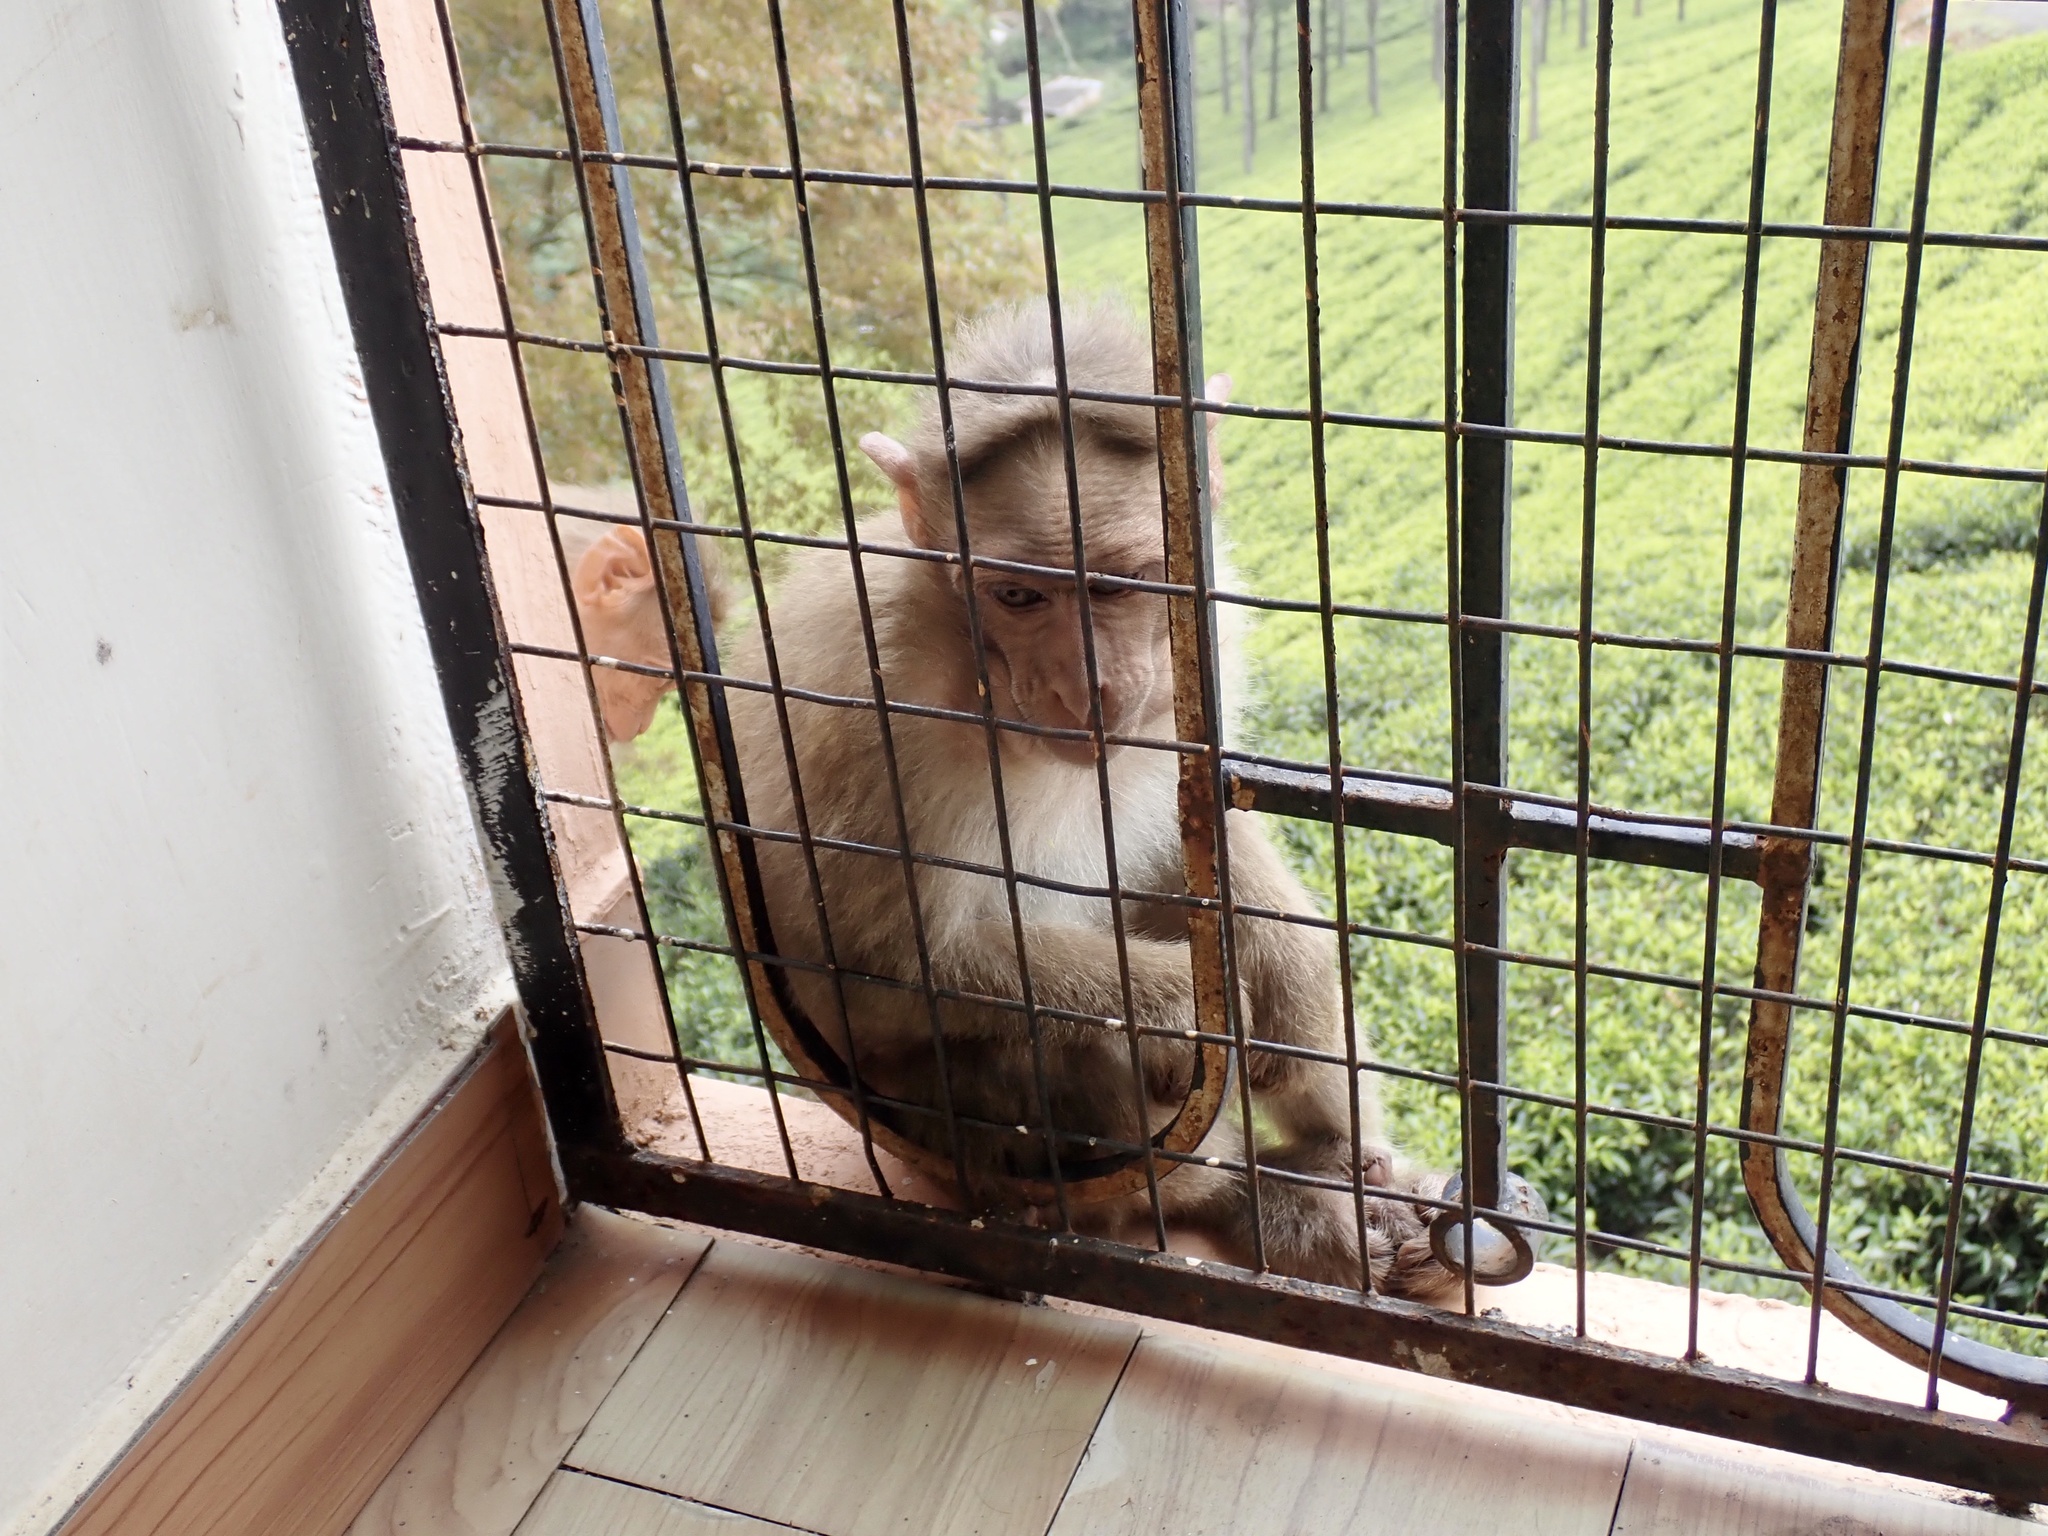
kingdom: Animalia
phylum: Chordata
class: Mammalia
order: Primates
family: Cercopithecidae
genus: Macaca
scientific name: Macaca radiata
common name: Bonnet macaque
